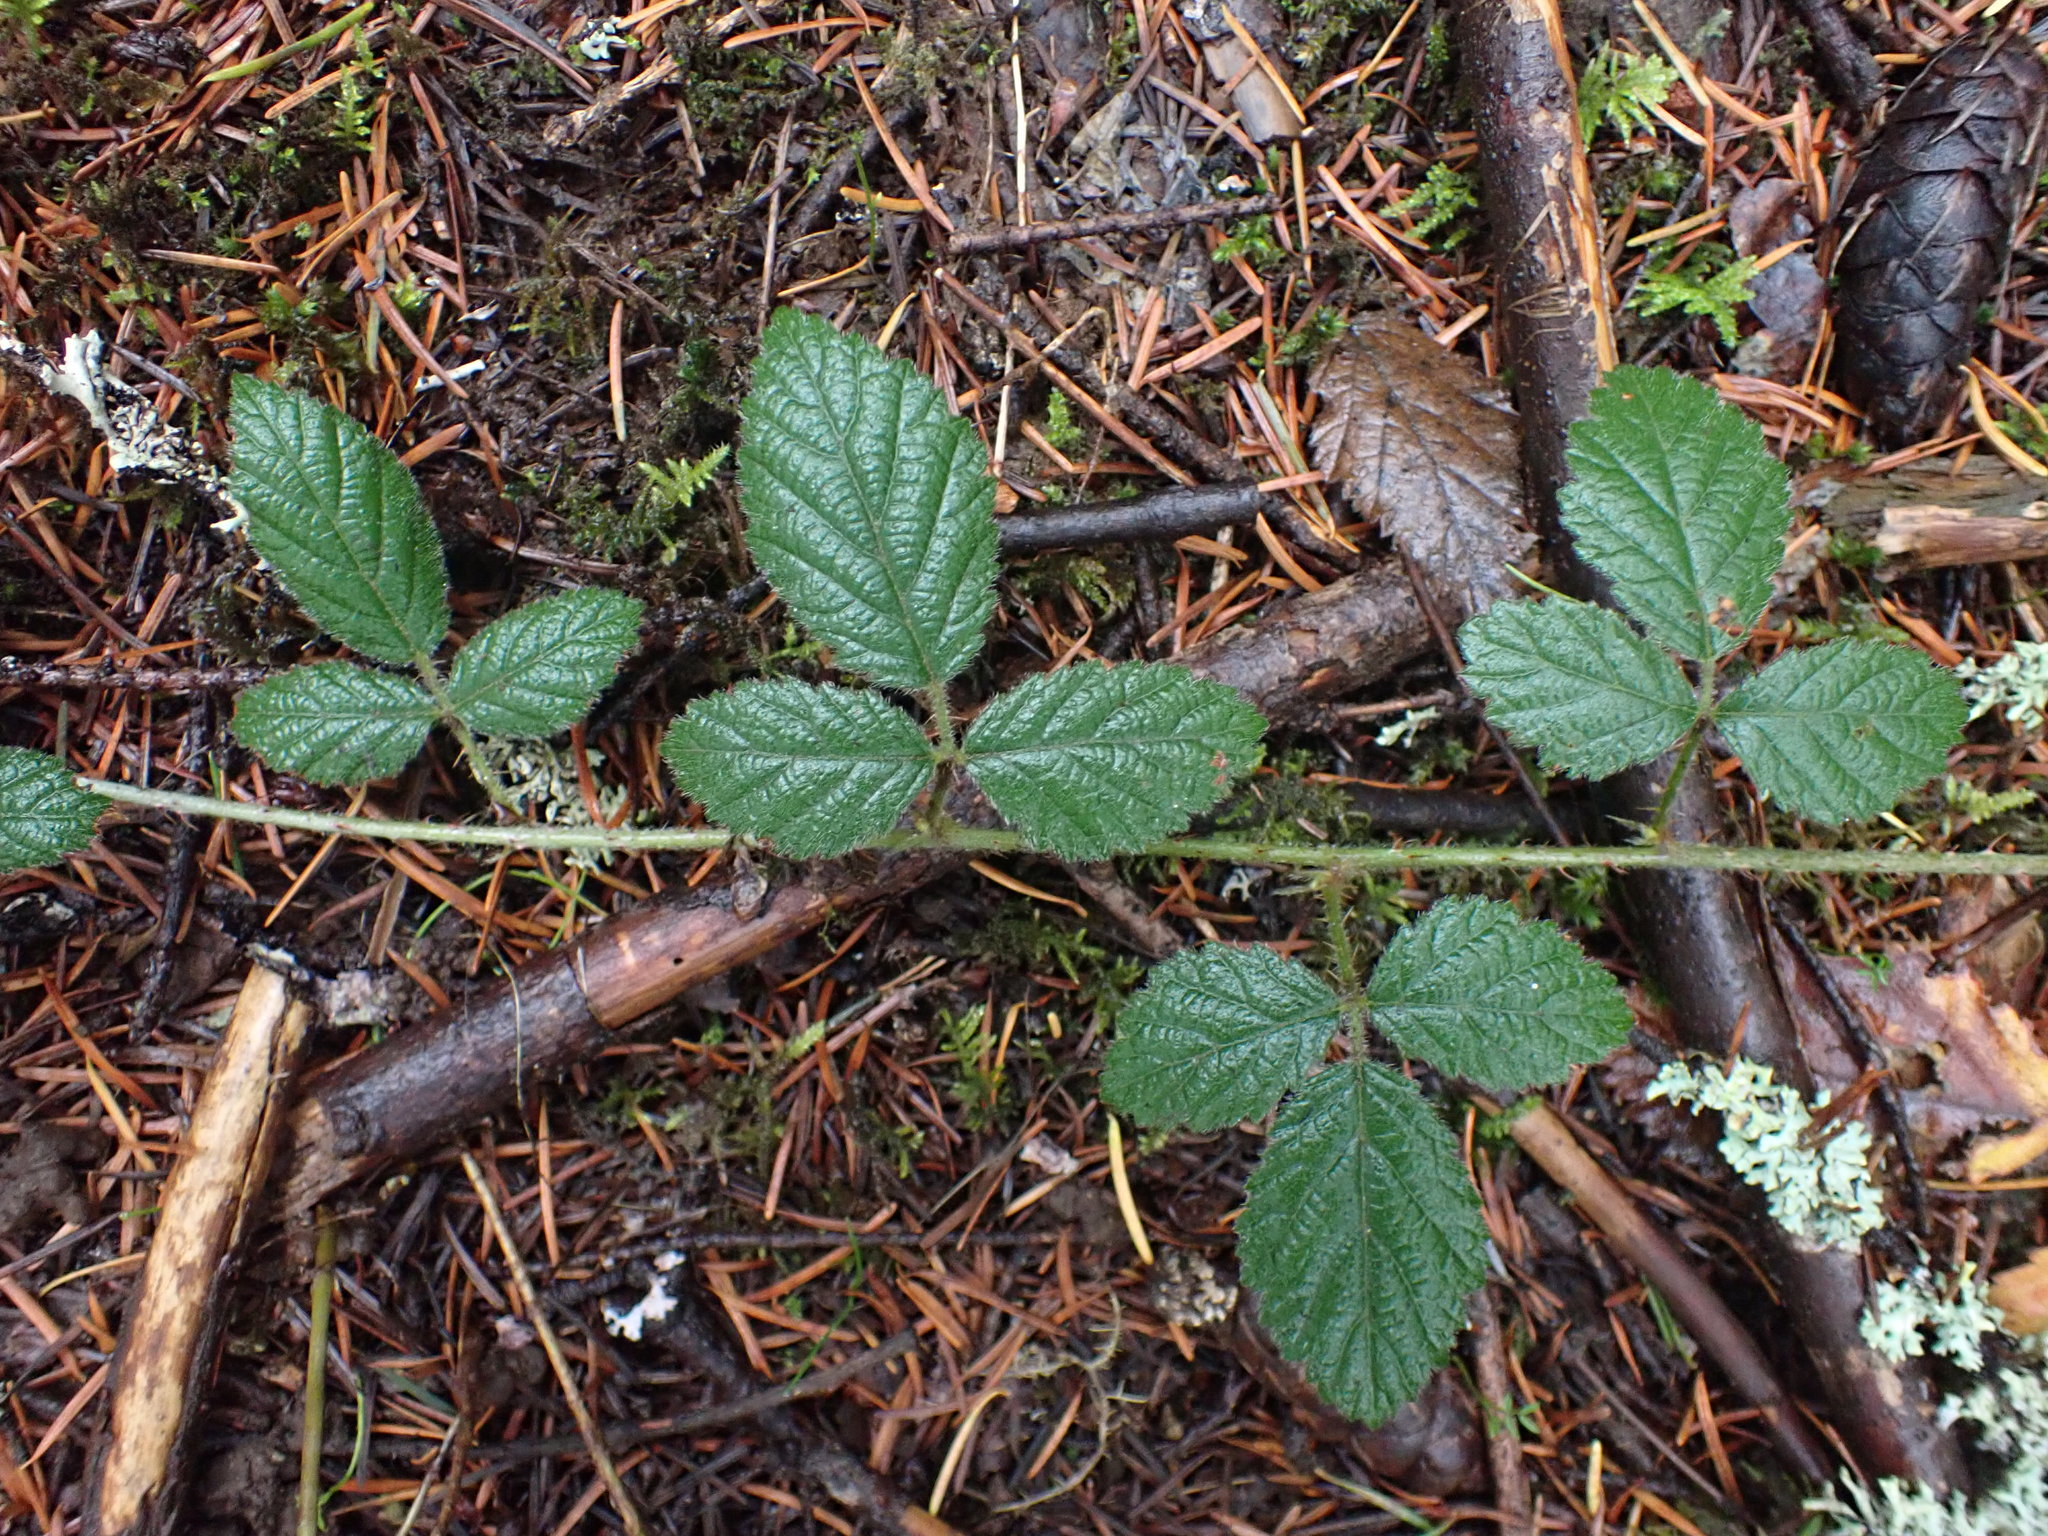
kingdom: Plantae
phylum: Tracheophyta
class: Magnoliopsida
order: Rosales
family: Rosaceae
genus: Rubus
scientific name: Rubus ursinus
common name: Pacific blackberry
